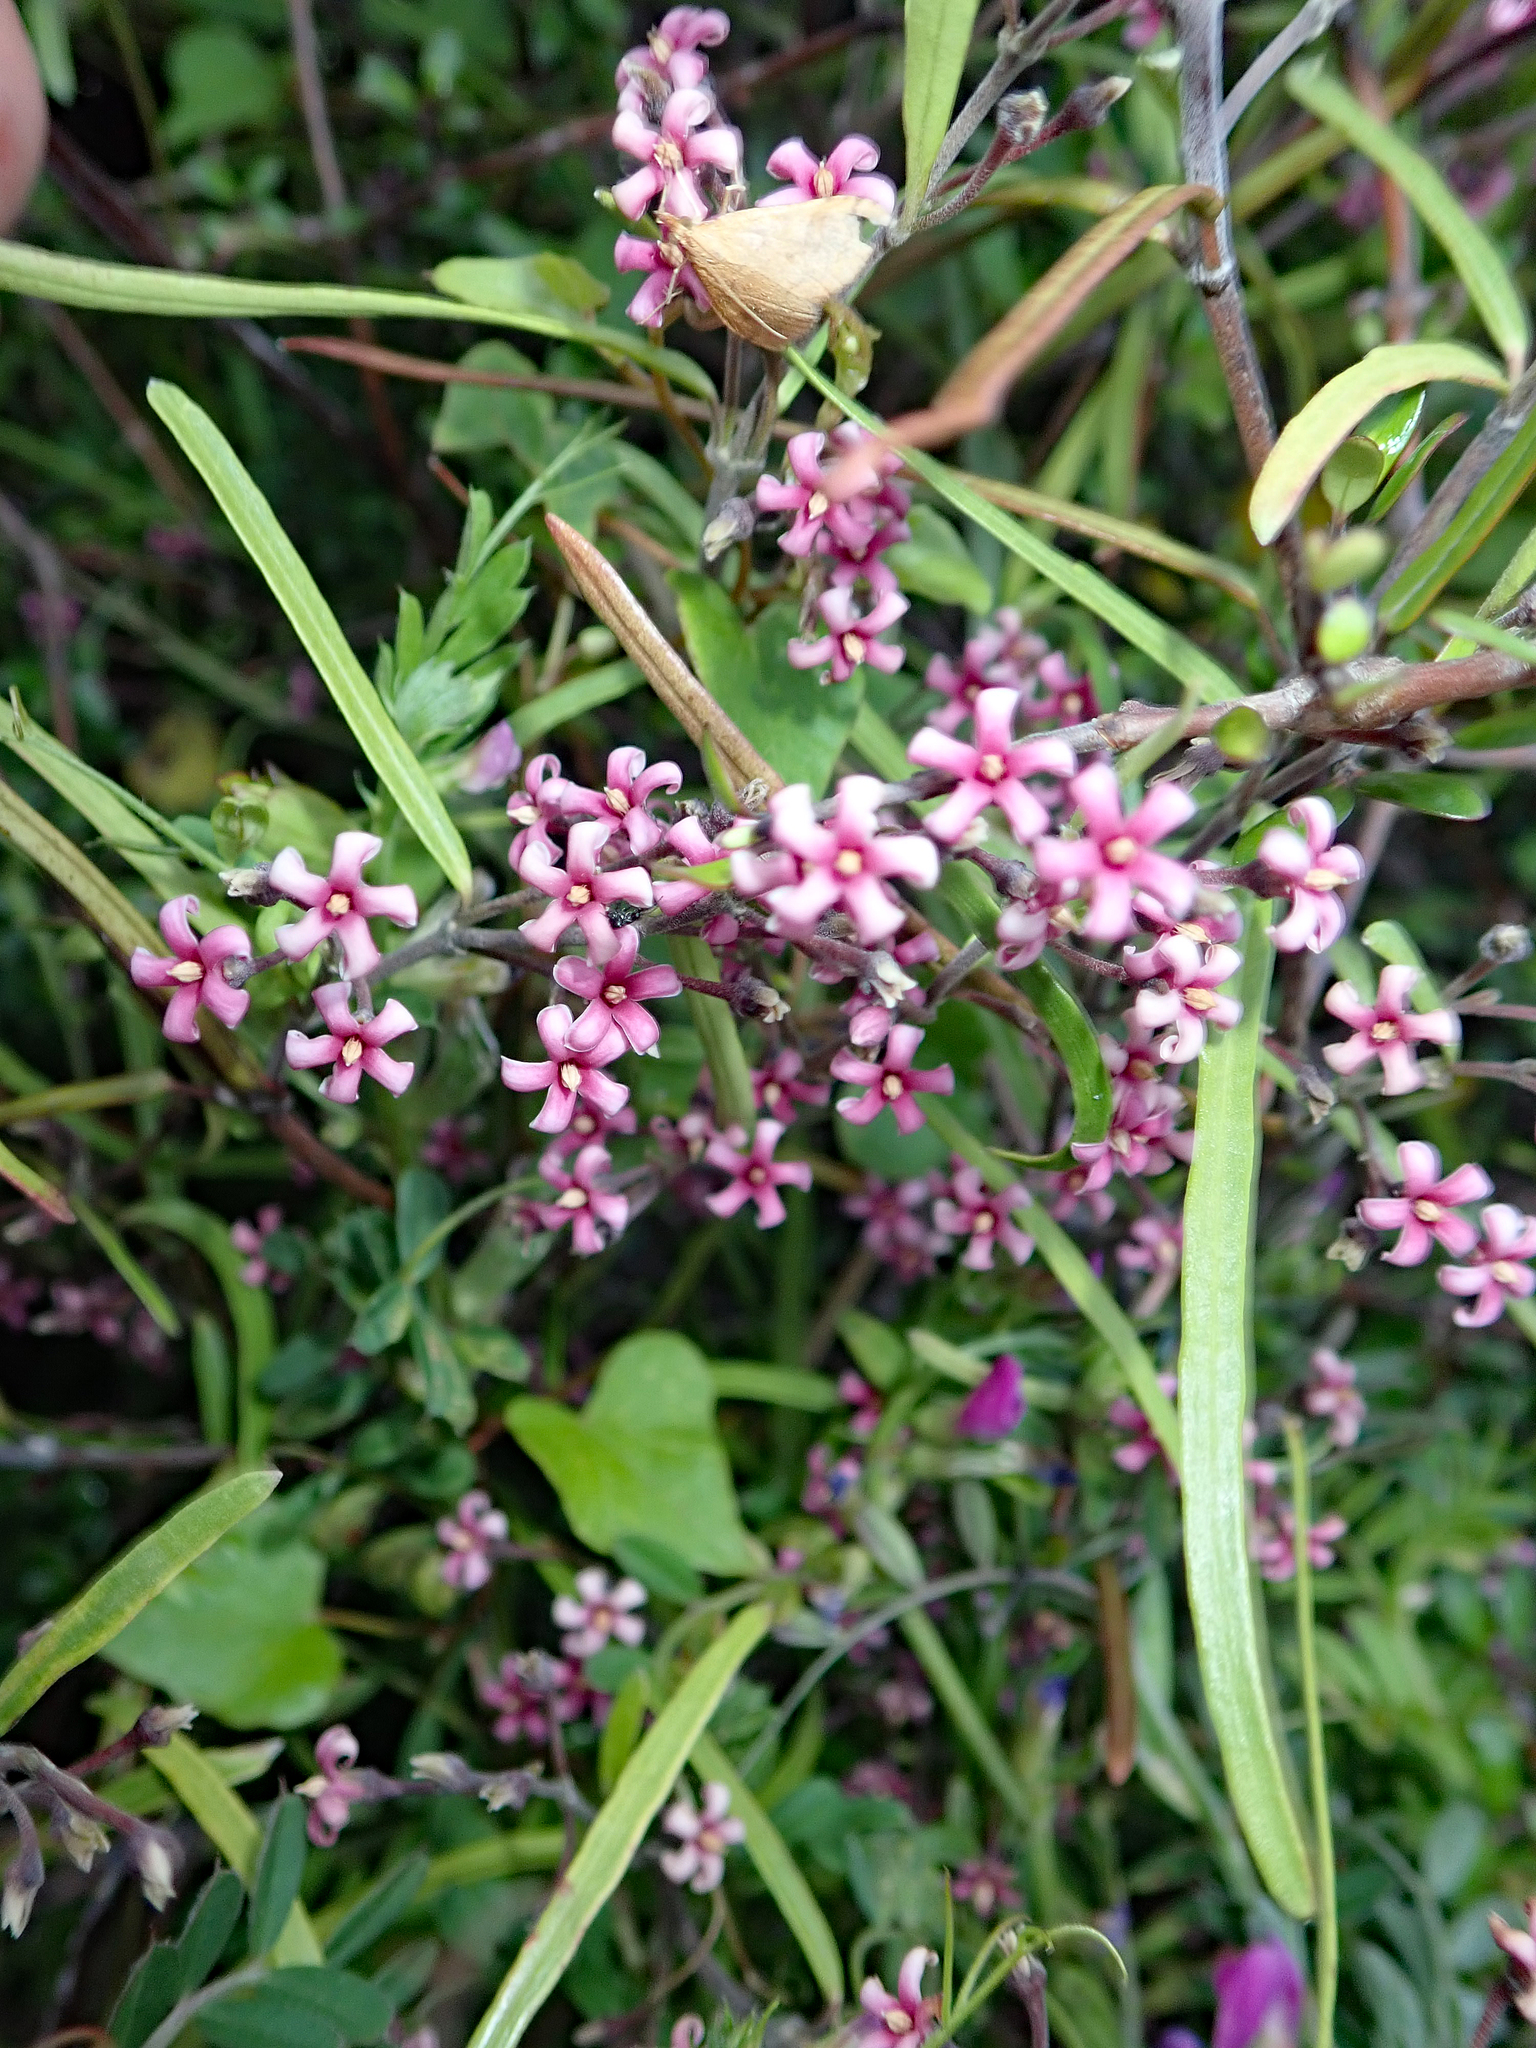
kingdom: Plantae
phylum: Tracheophyta
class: Magnoliopsida
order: Gentianales
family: Apocynaceae
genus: Parsonsia
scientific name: Parsonsia capsularis
